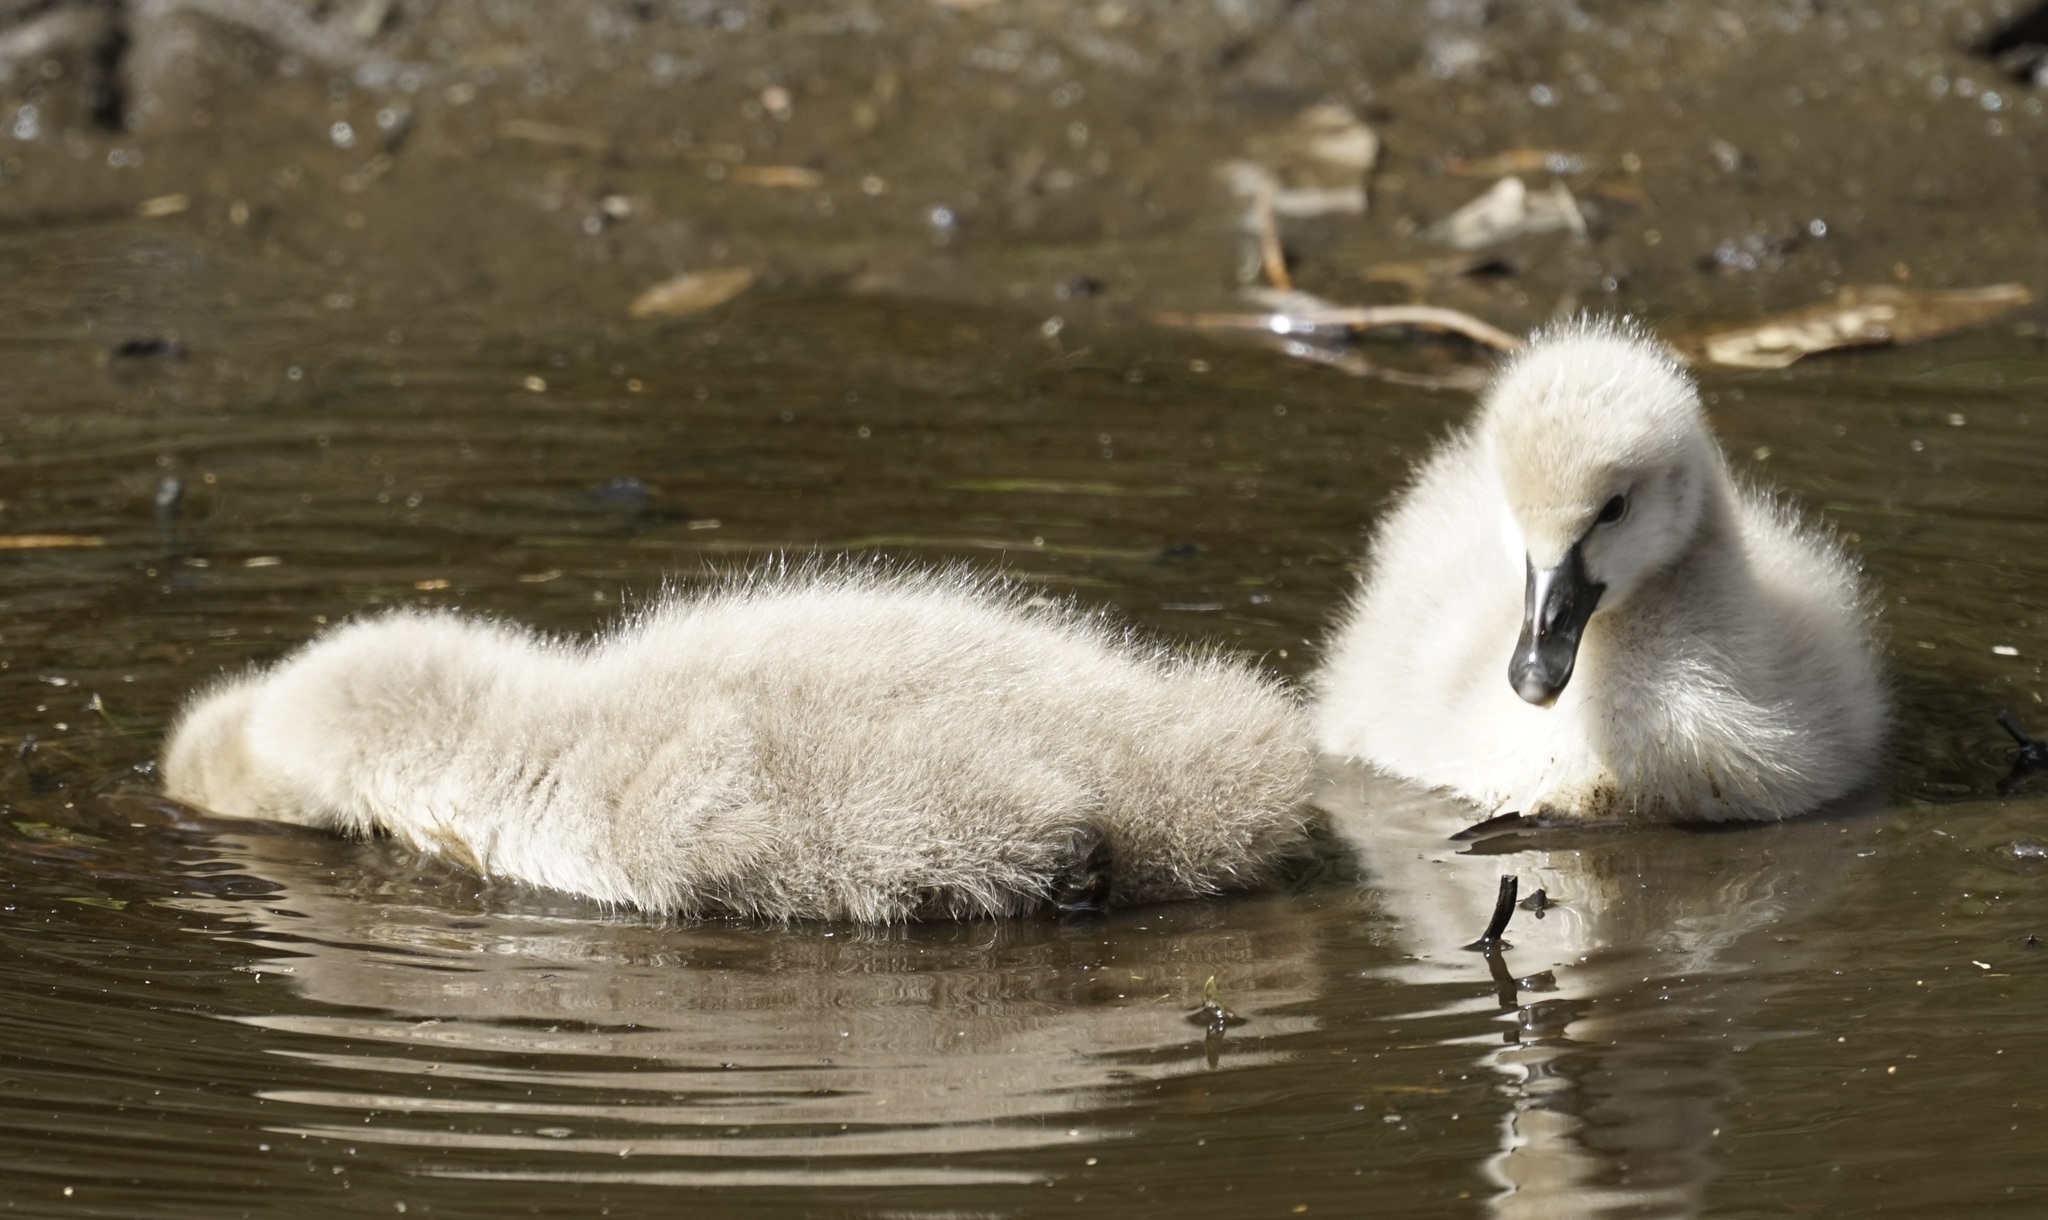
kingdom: Animalia
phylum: Chordata
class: Aves
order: Anseriformes
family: Anatidae
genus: Cygnus
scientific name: Cygnus atratus
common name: Black swan
